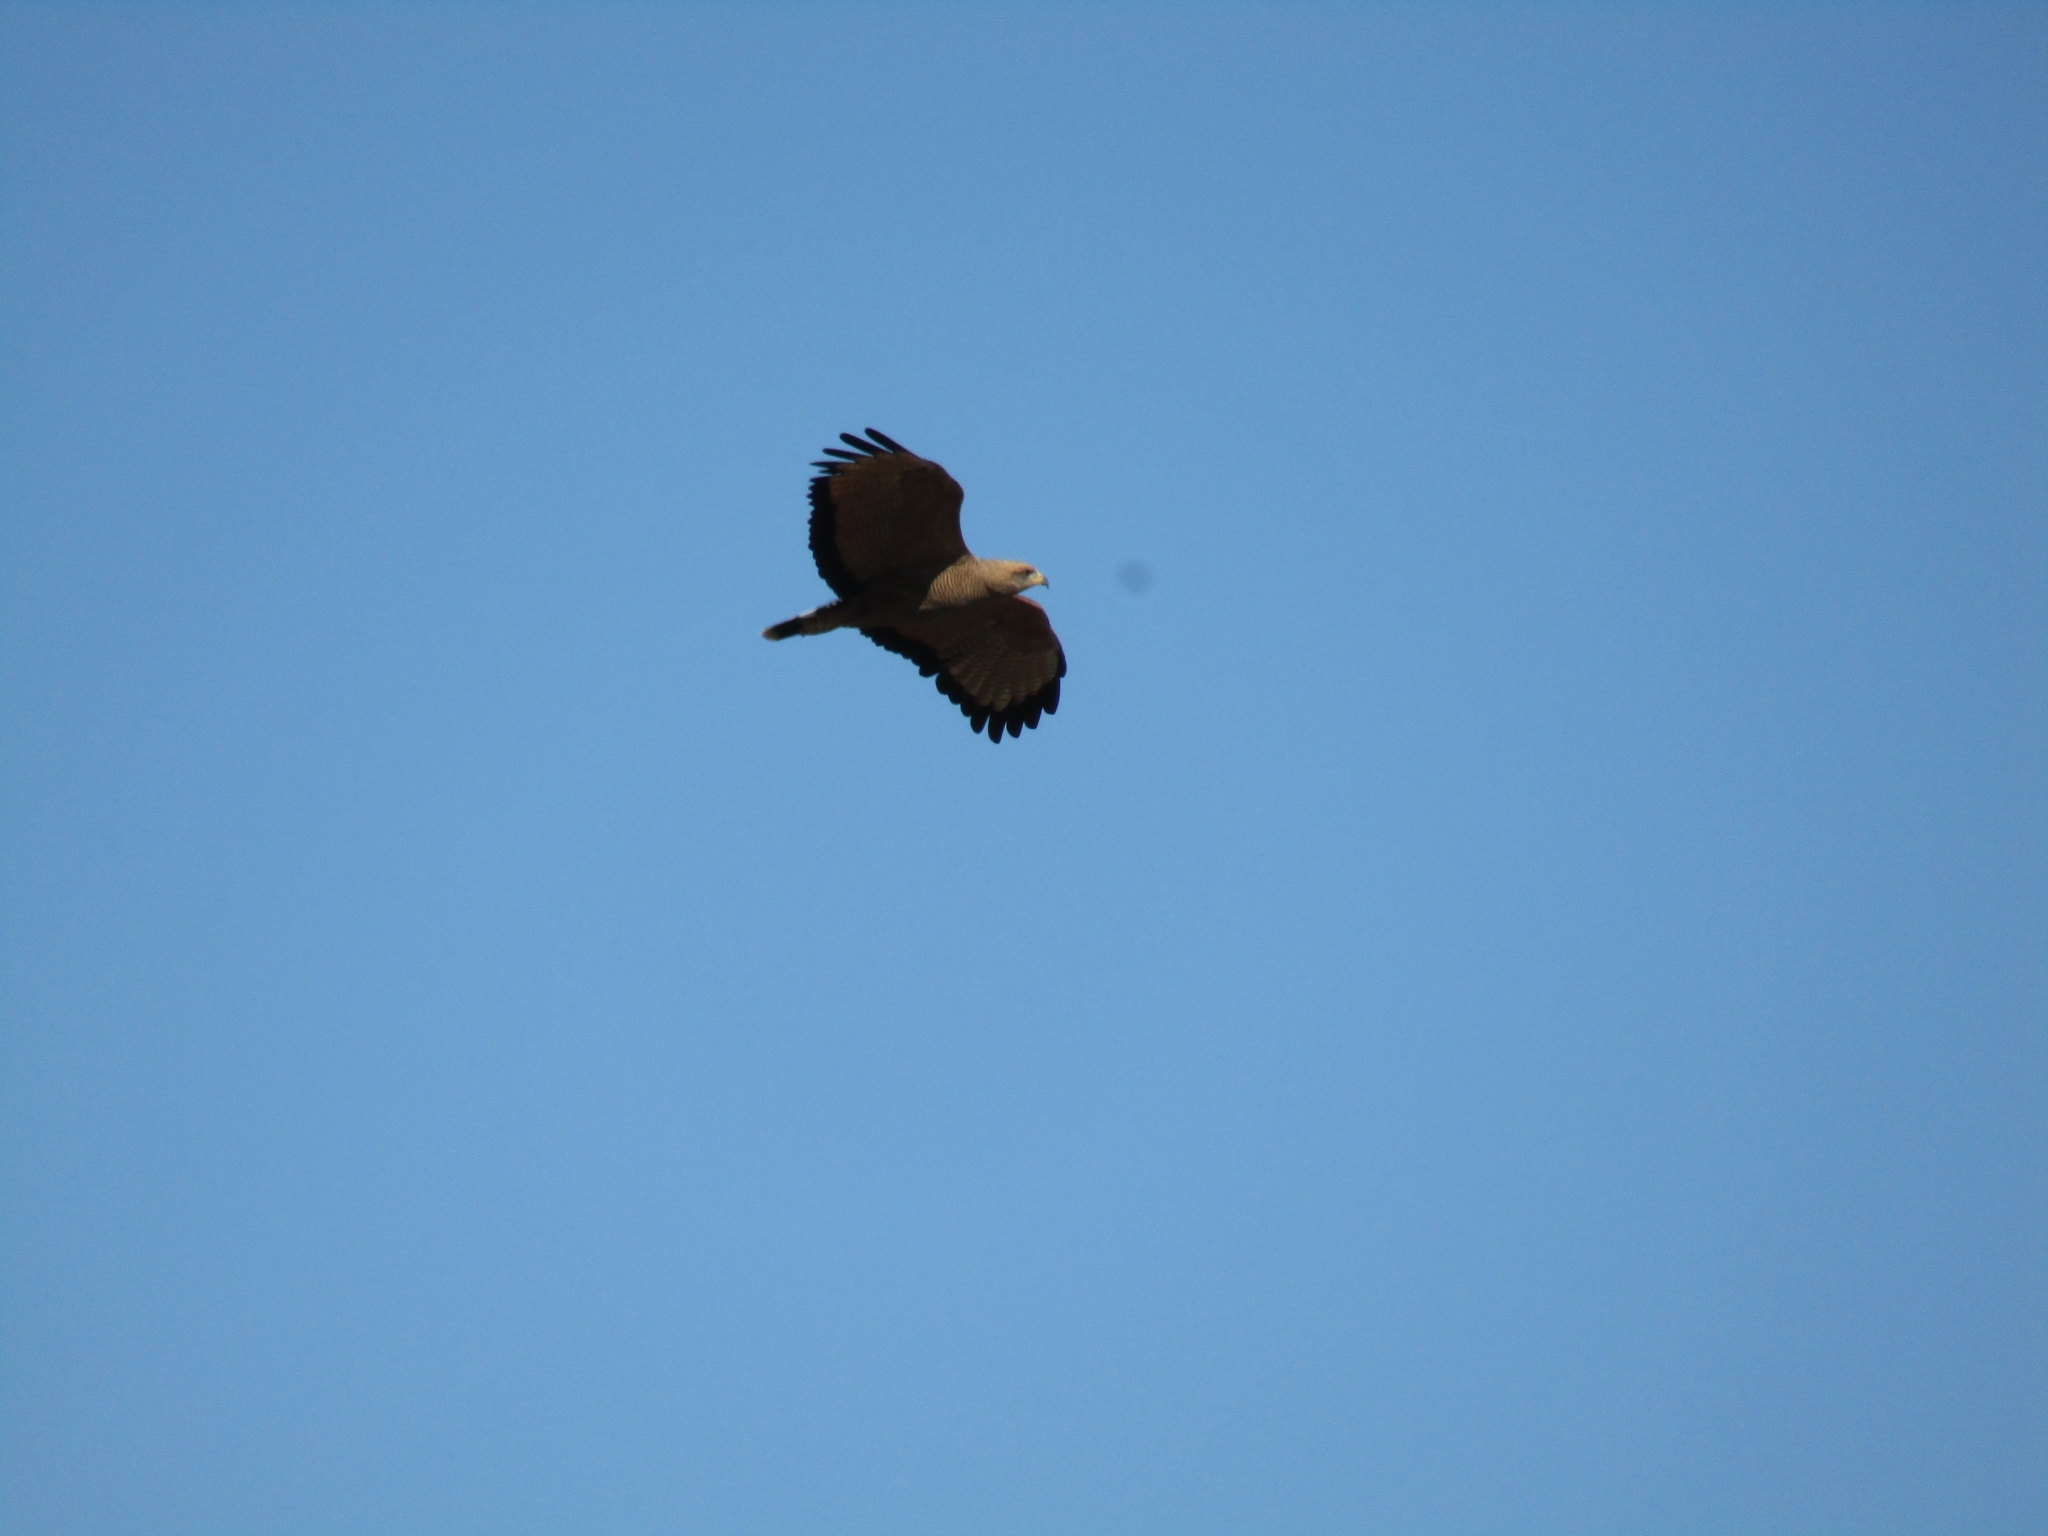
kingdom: Animalia
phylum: Chordata
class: Aves
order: Accipitriformes
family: Accipitridae
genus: Buteogallus
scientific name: Buteogallus meridionalis
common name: Savanna hawk
